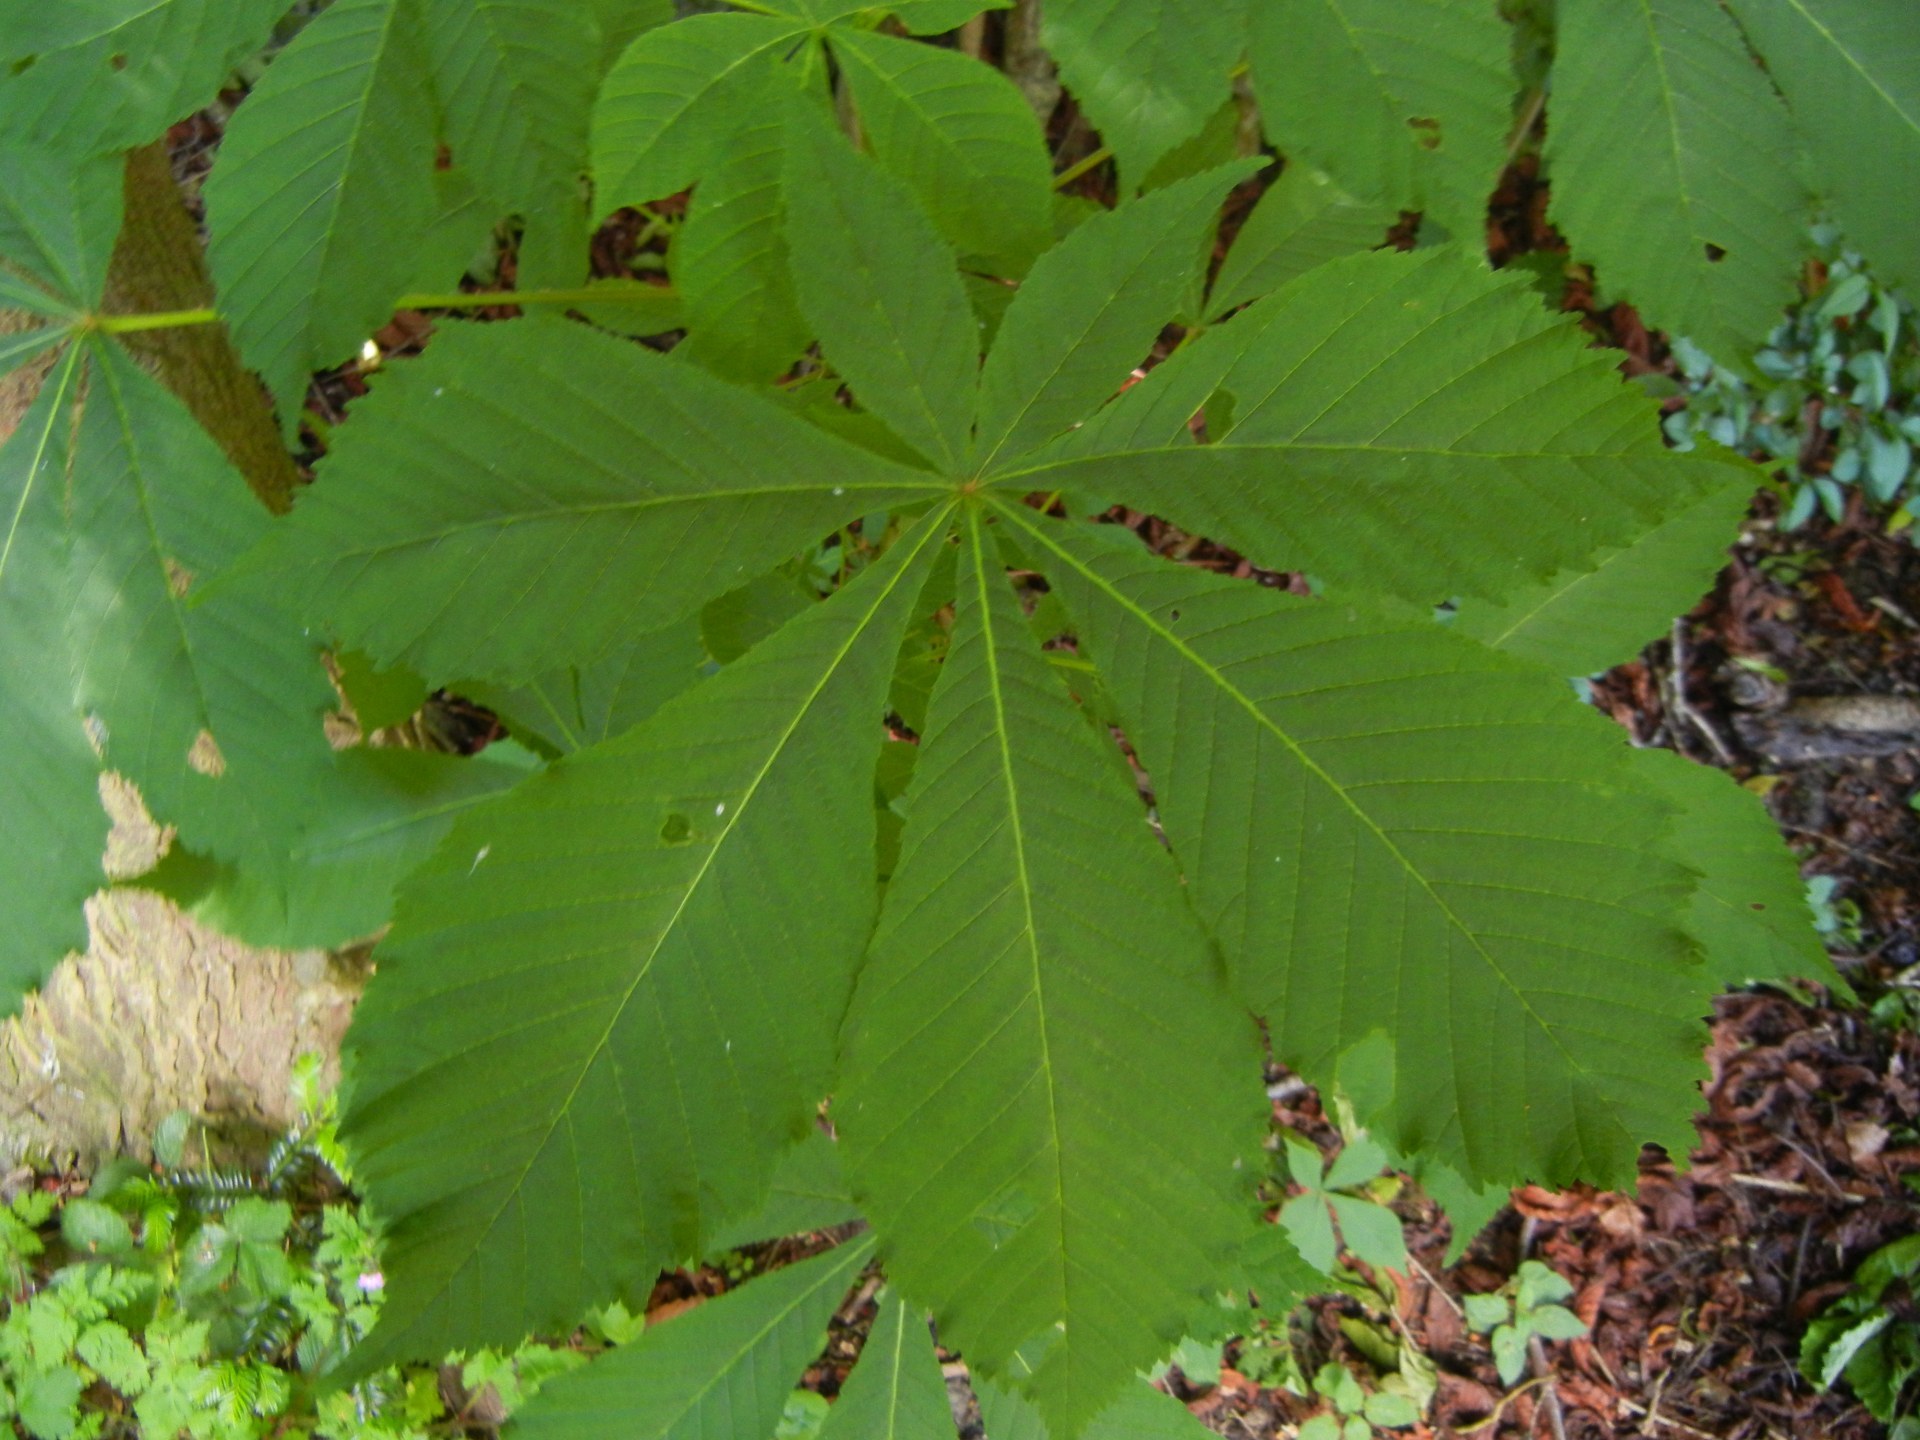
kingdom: Plantae
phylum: Tracheophyta
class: Magnoliopsida
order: Sapindales
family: Sapindaceae
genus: Aesculus
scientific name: Aesculus hippocastanum
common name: Horse-chestnut
